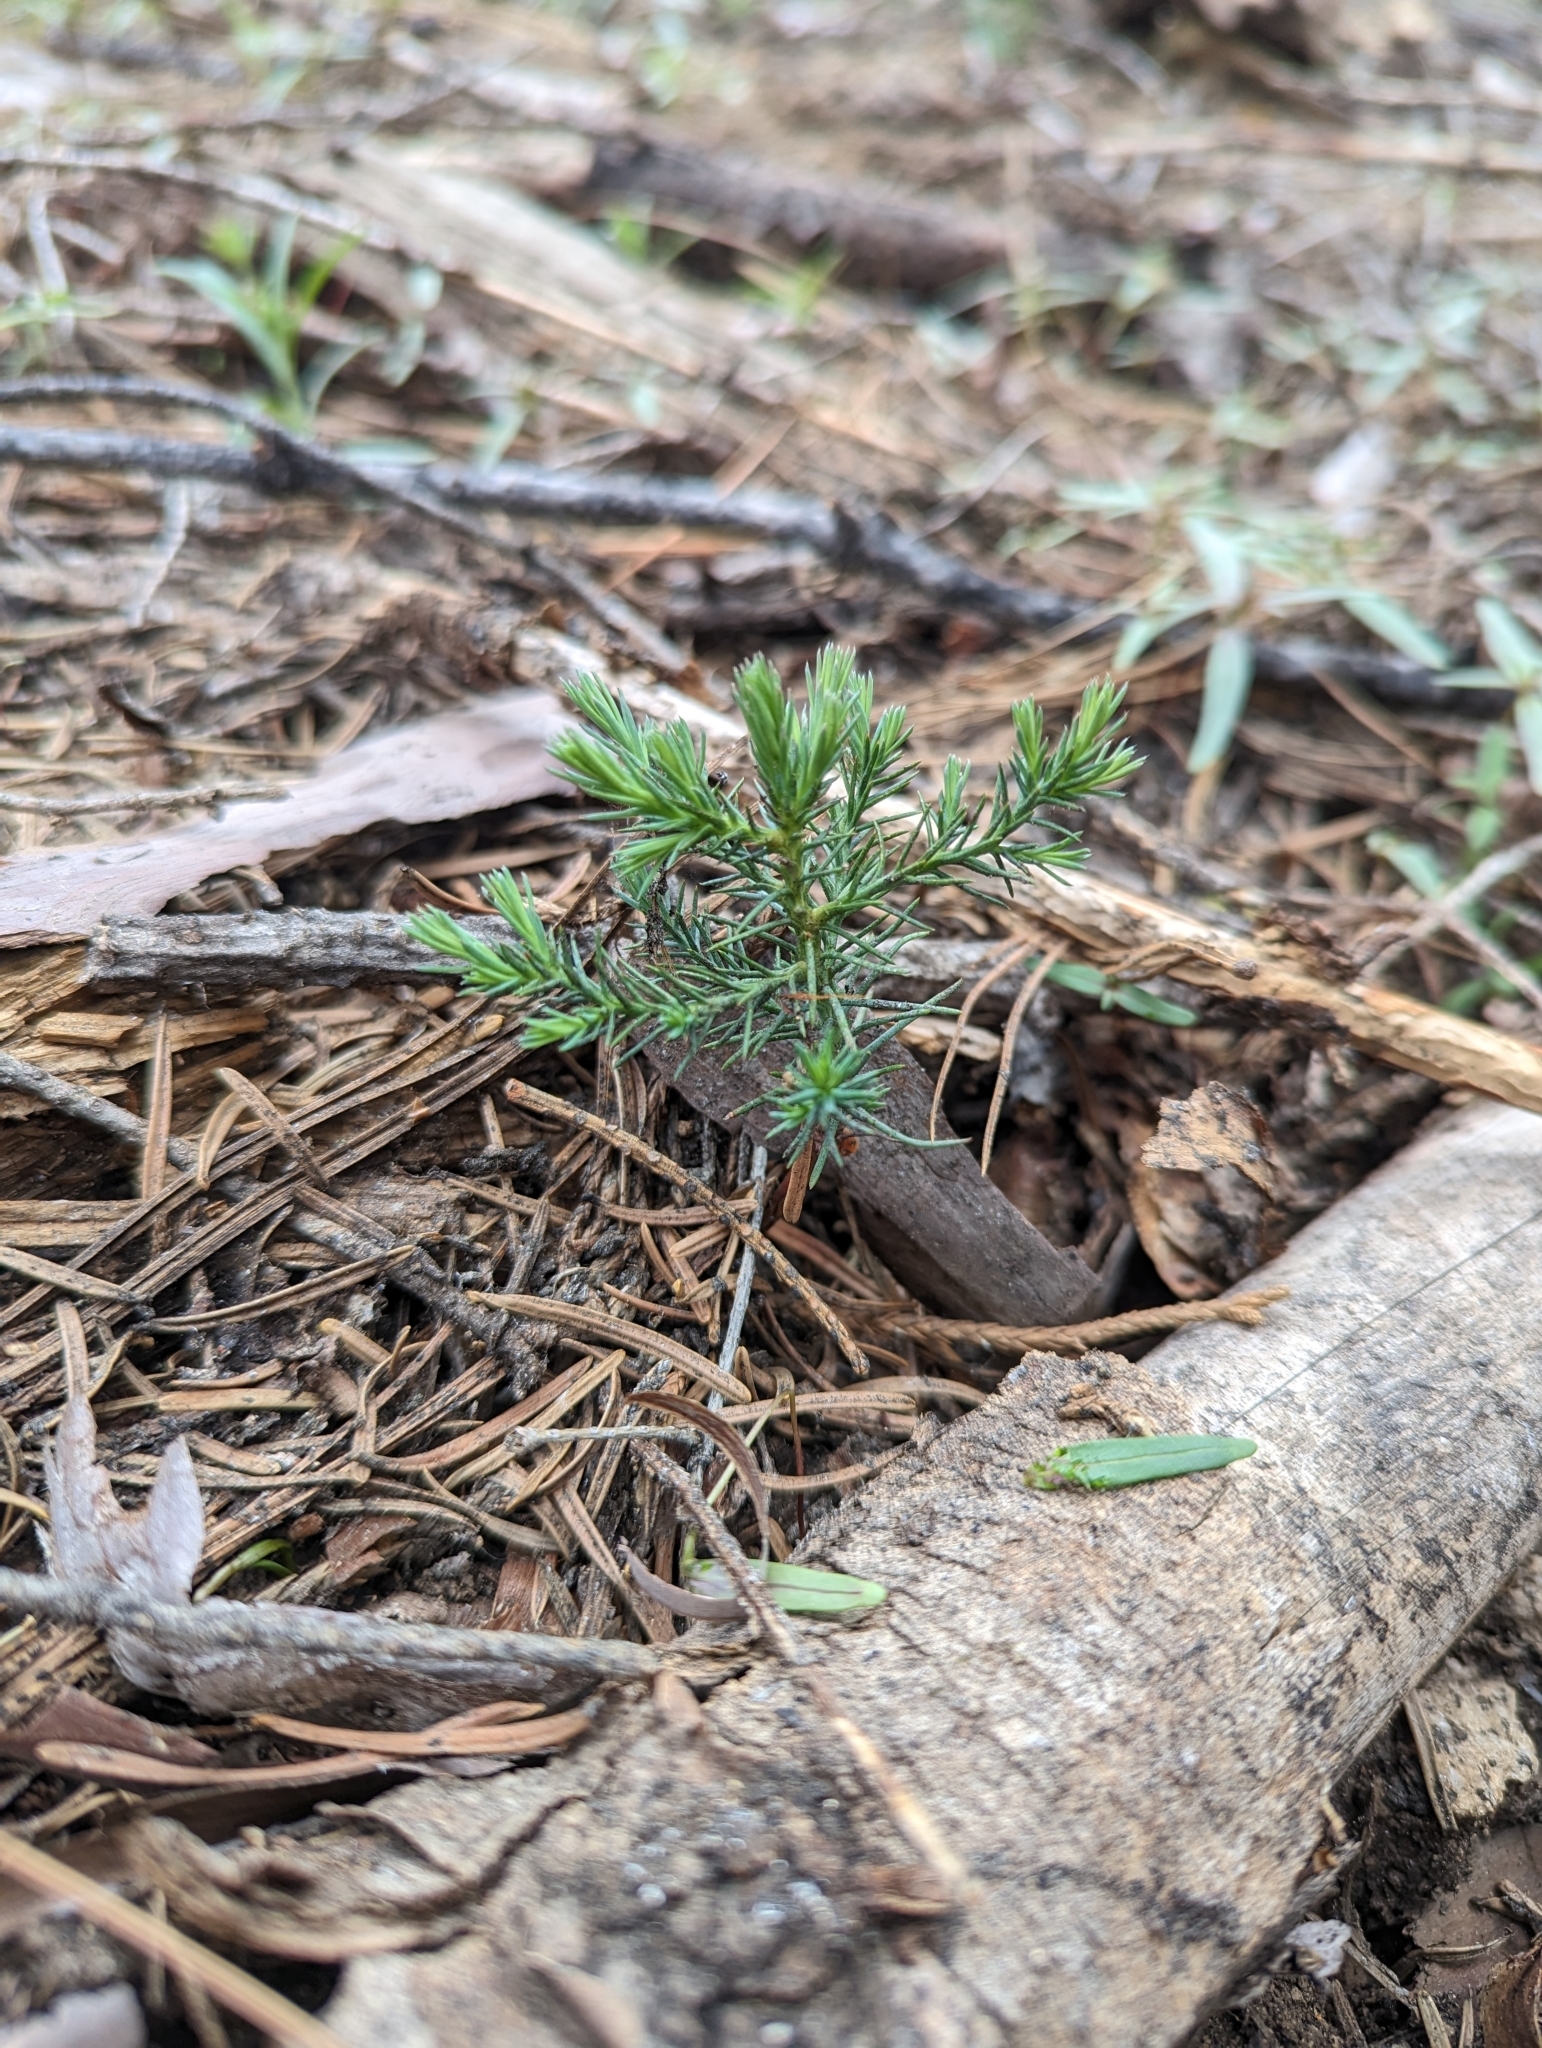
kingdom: Plantae
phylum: Tracheophyta
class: Pinopsida
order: Pinales
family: Cupressaceae
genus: Sequoiadendron
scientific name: Sequoiadendron giganteum
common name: Wellingtonia
